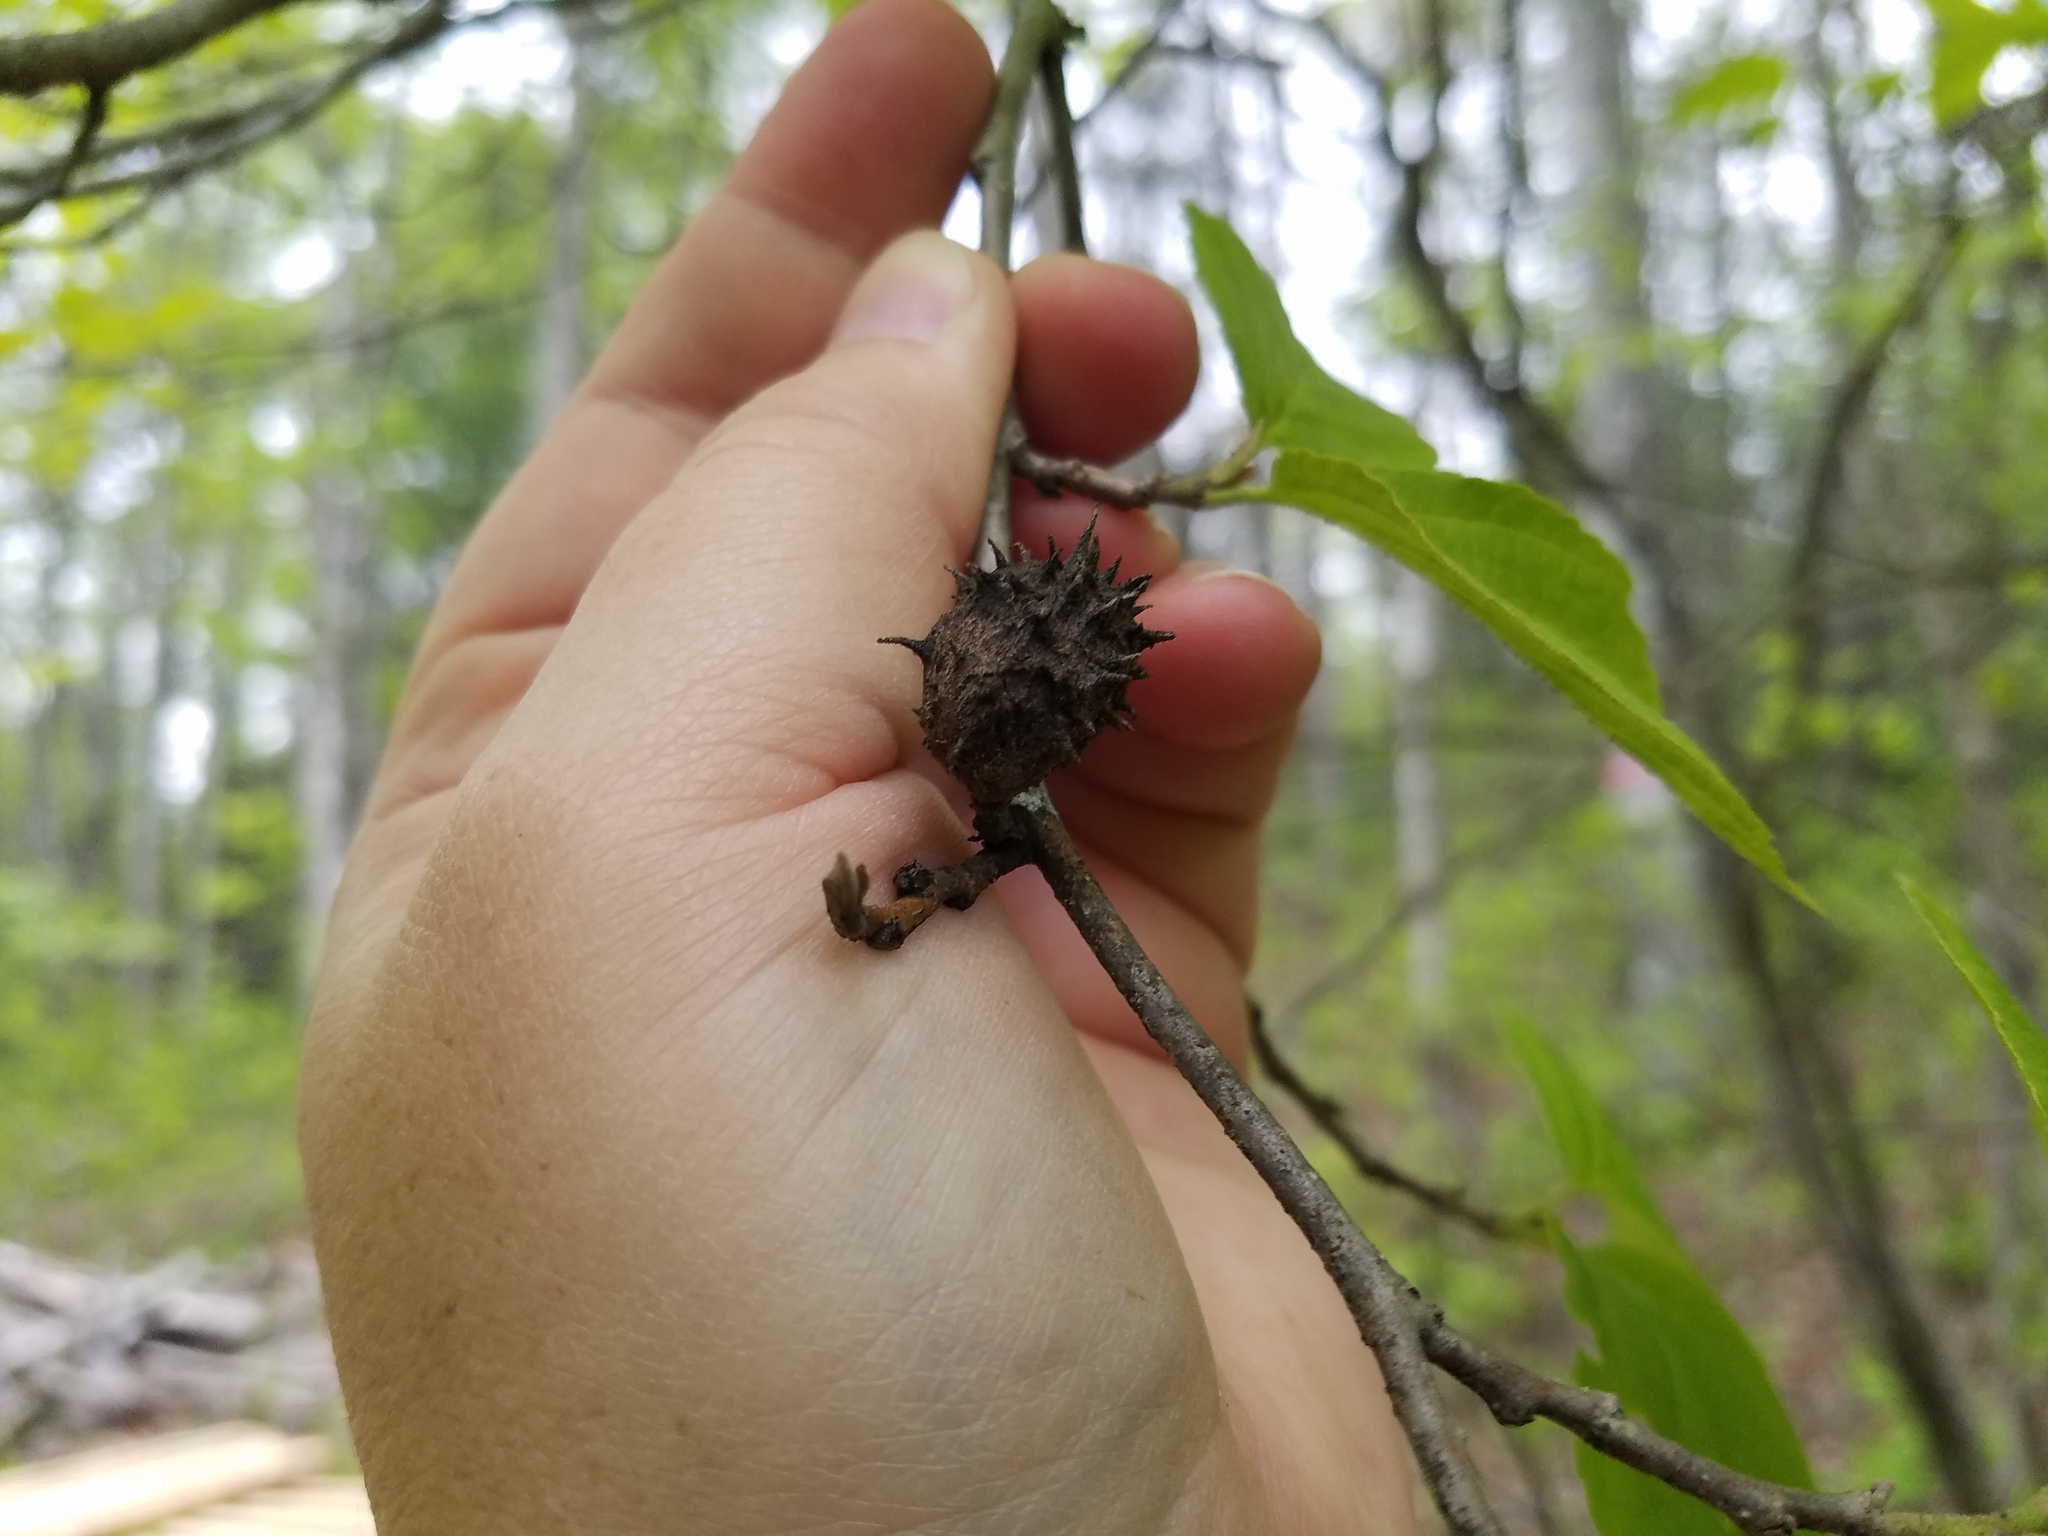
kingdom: Animalia
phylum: Arthropoda
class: Insecta
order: Hemiptera
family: Aphididae
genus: Hamamelistes
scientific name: Hamamelistes spinosus
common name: Witch hazel gall aphid
